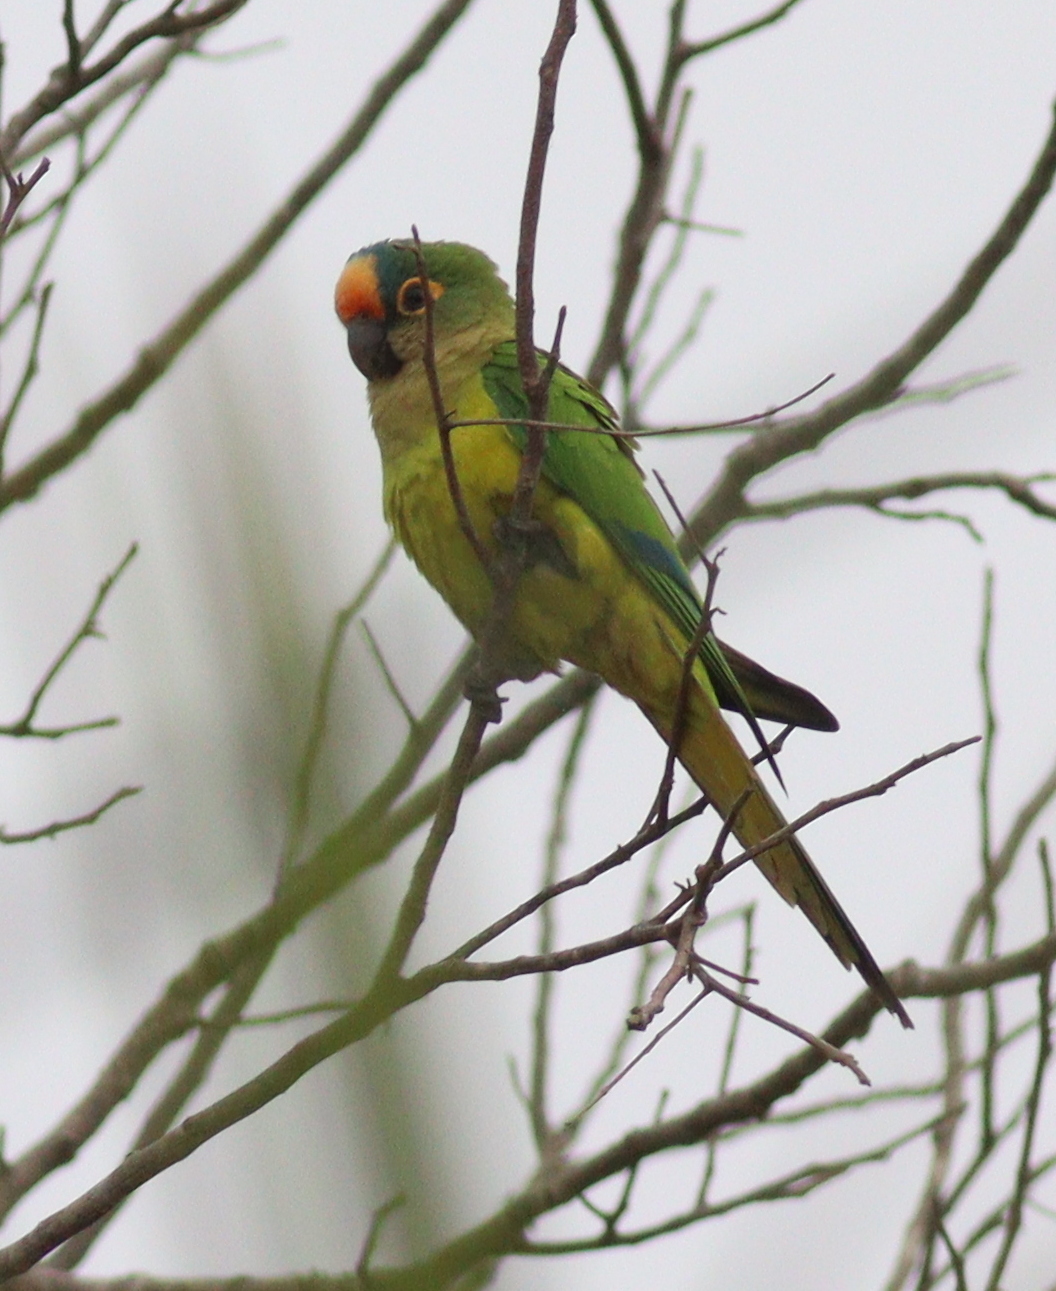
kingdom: Animalia
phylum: Chordata
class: Aves
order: Psittaciformes
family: Psittacidae
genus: Aratinga
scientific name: Aratinga aurea
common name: Peach-fronted parakeet
